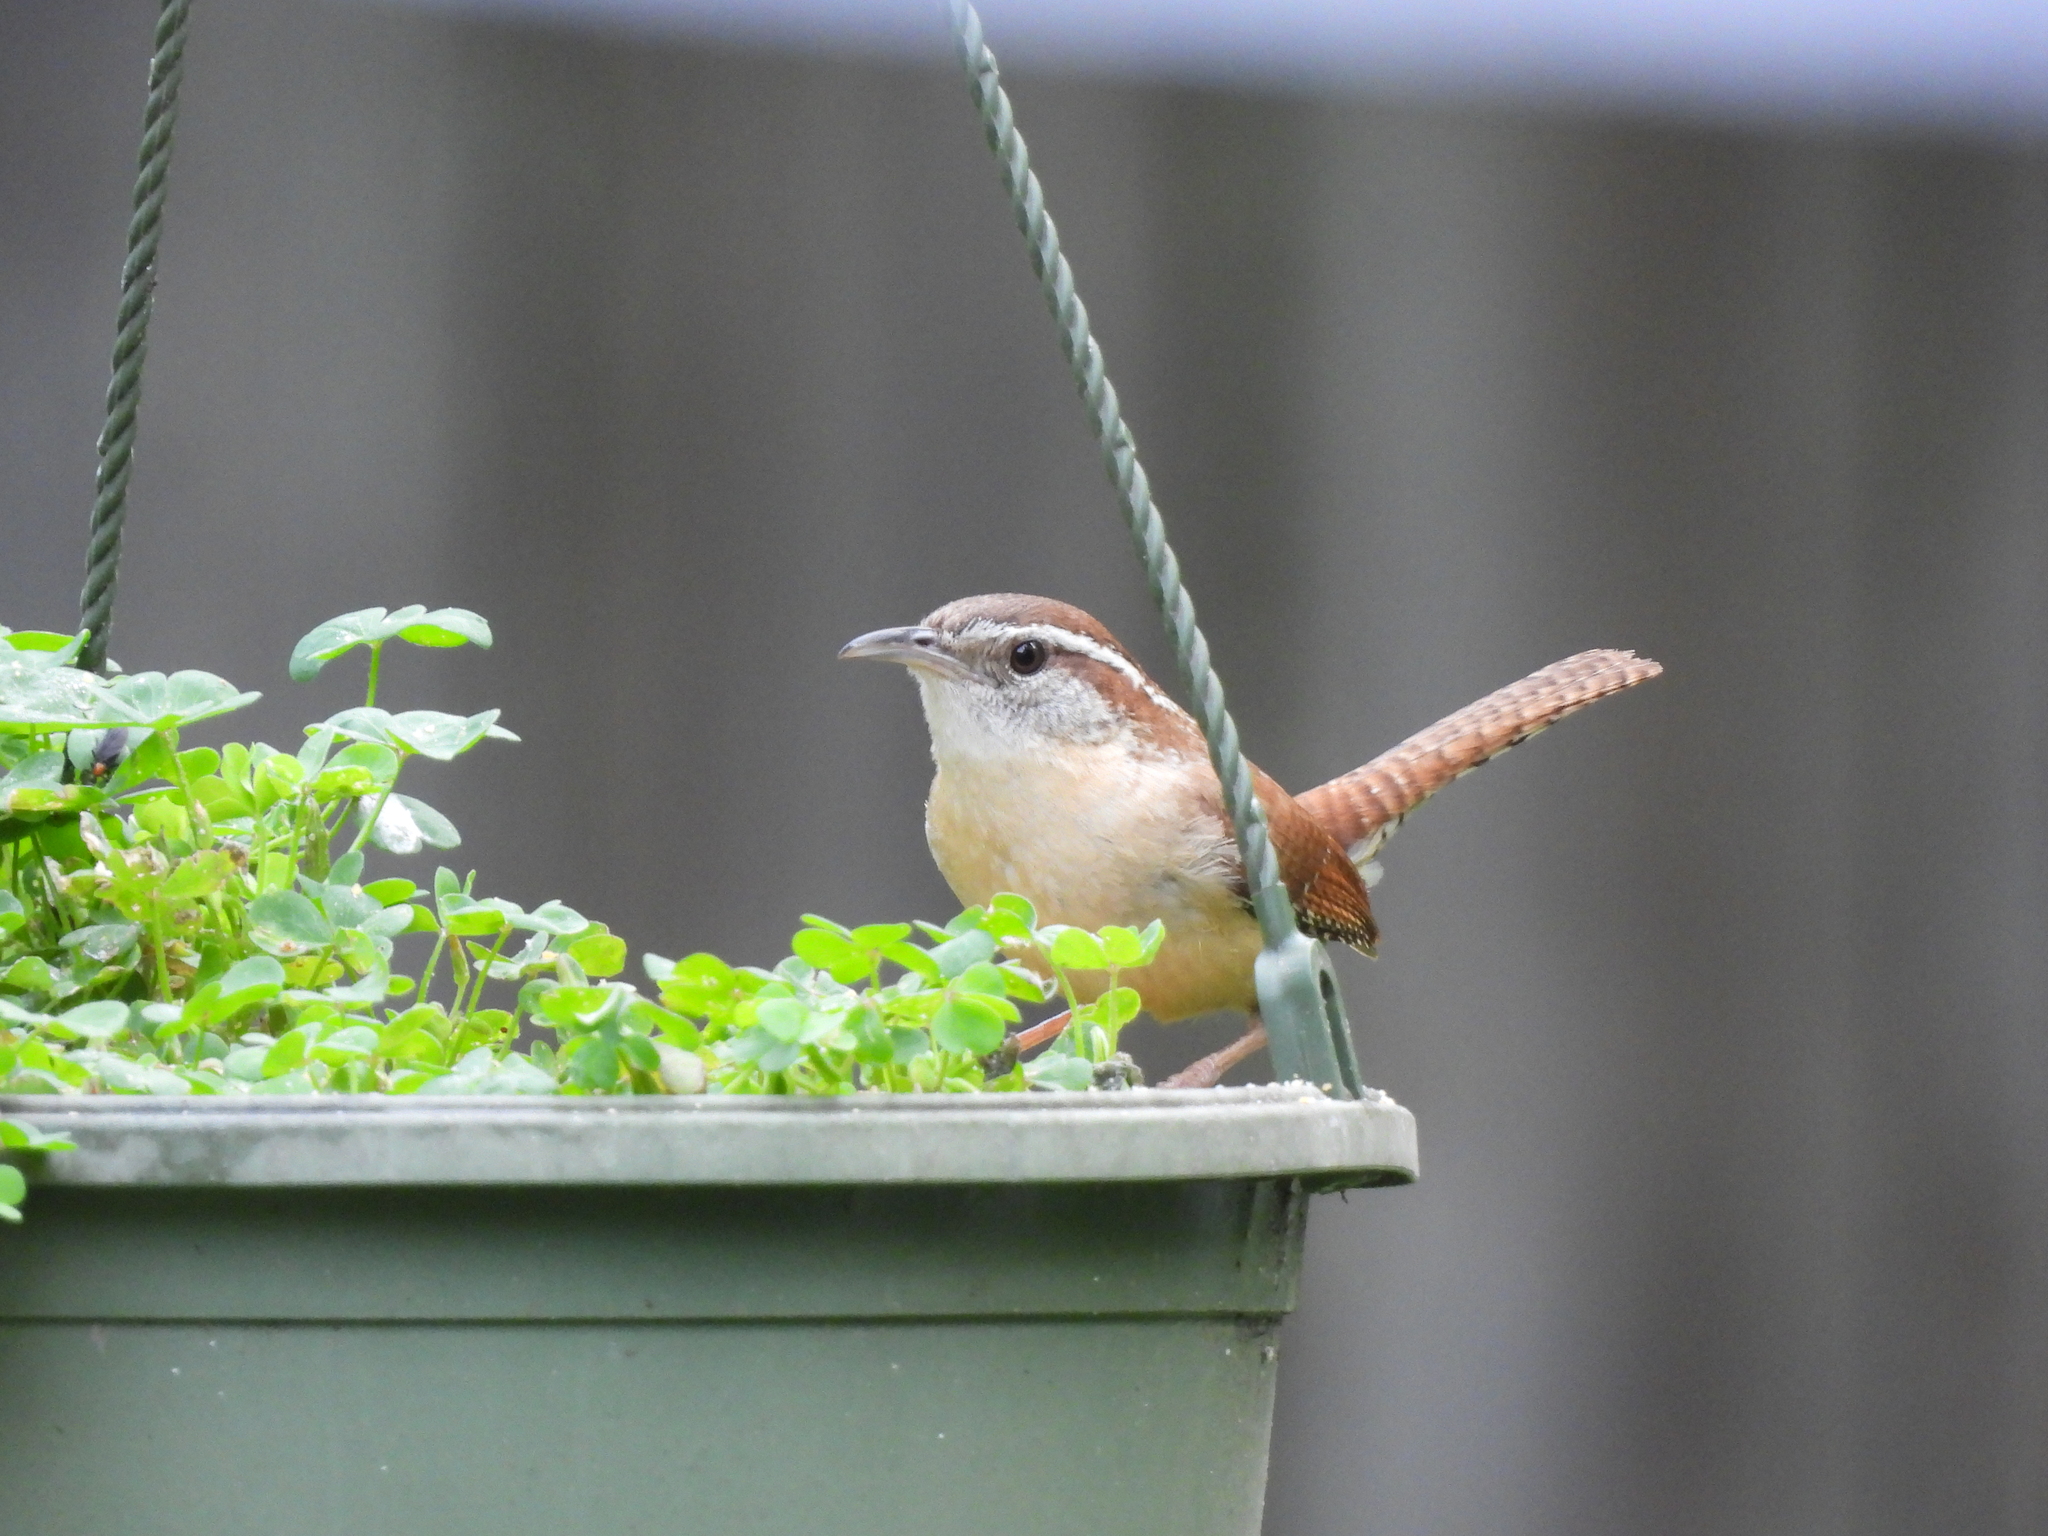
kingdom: Animalia
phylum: Chordata
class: Aves
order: Passeriformes
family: Troglodytidae
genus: Thryothorus
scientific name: Thryothorus ludovicianus
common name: Carolina wren
